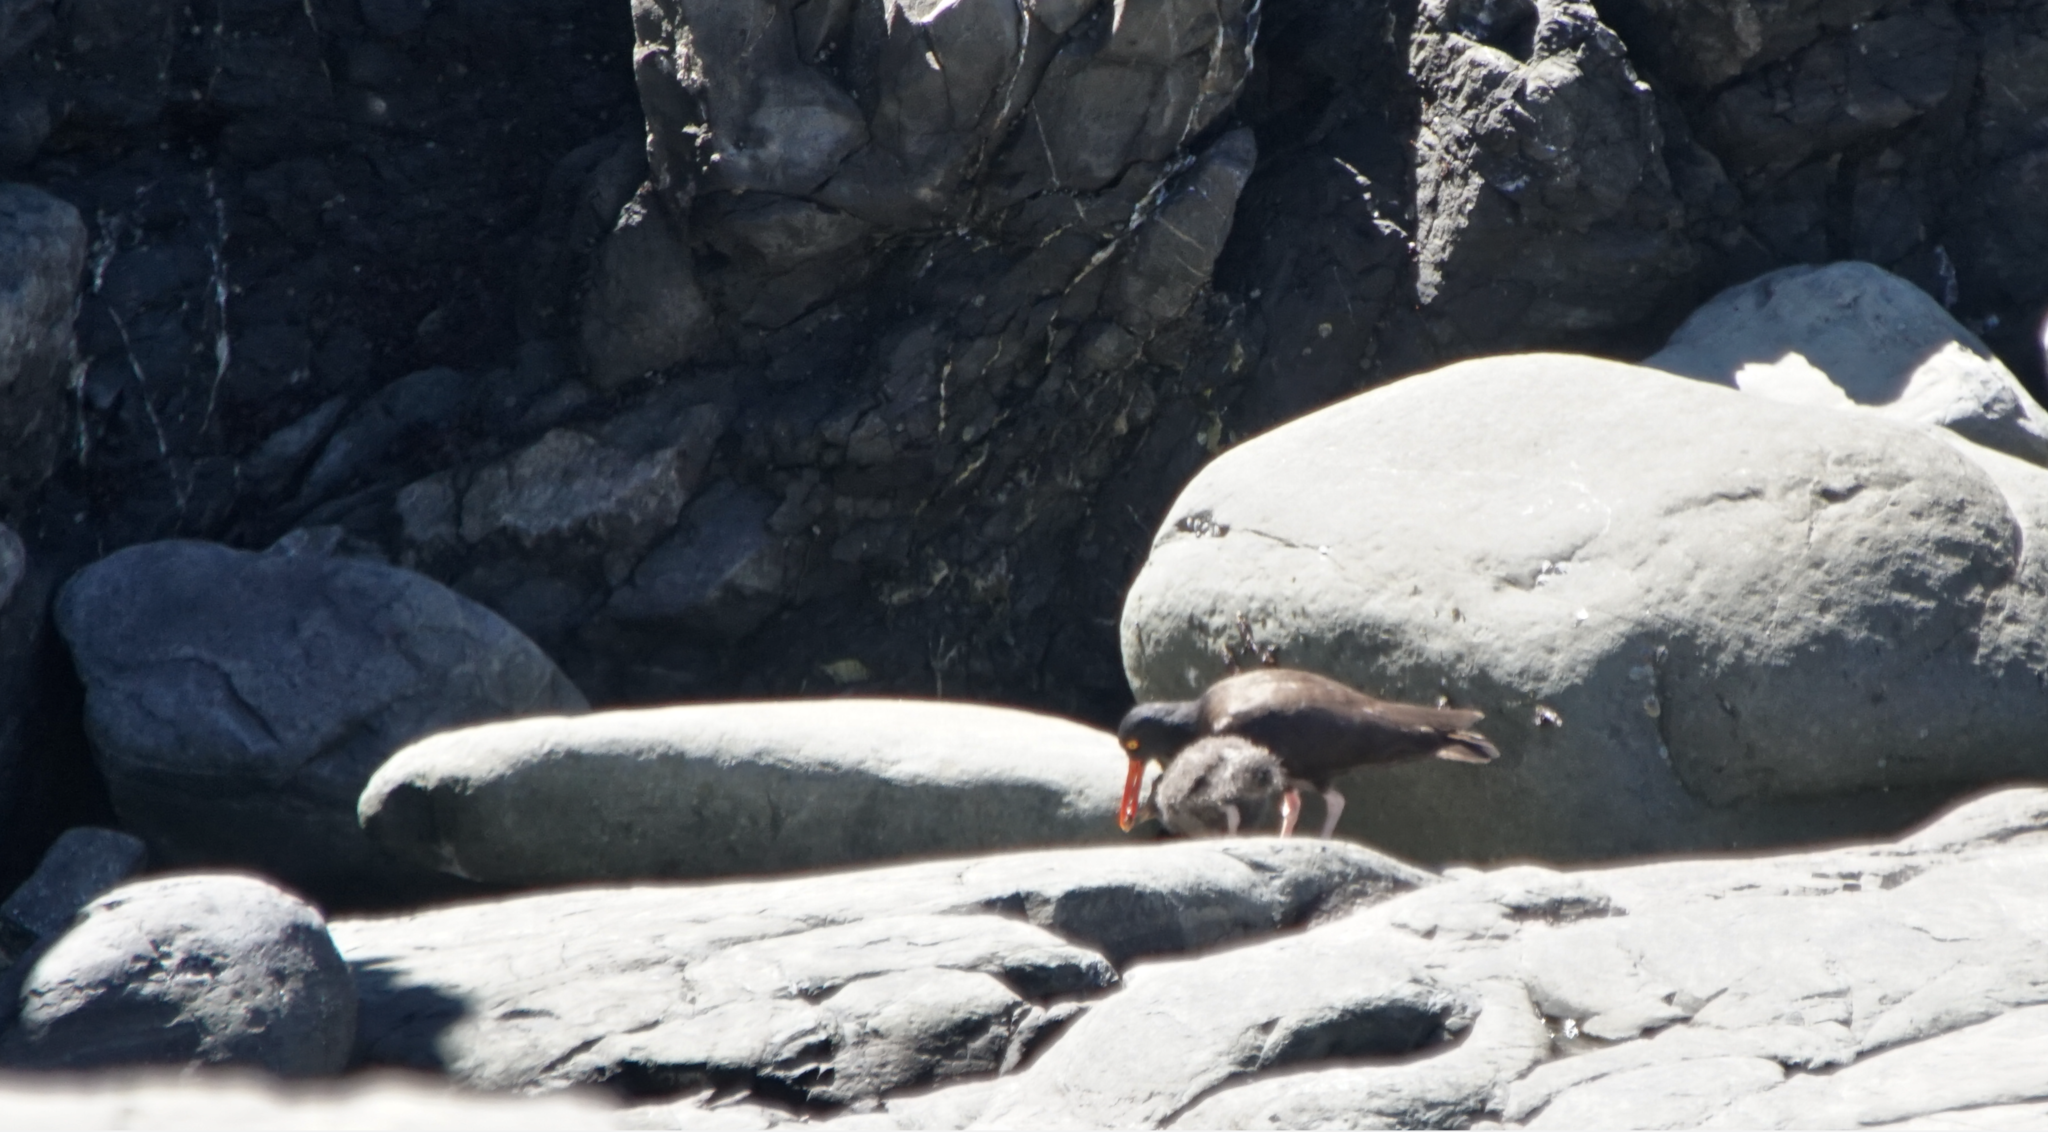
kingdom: Animalia
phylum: Chordata
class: Aves
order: Charadriiformes
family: Haematopodidae
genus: Haematopus
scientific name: Haematopus bachmani
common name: Black oystercatcher
